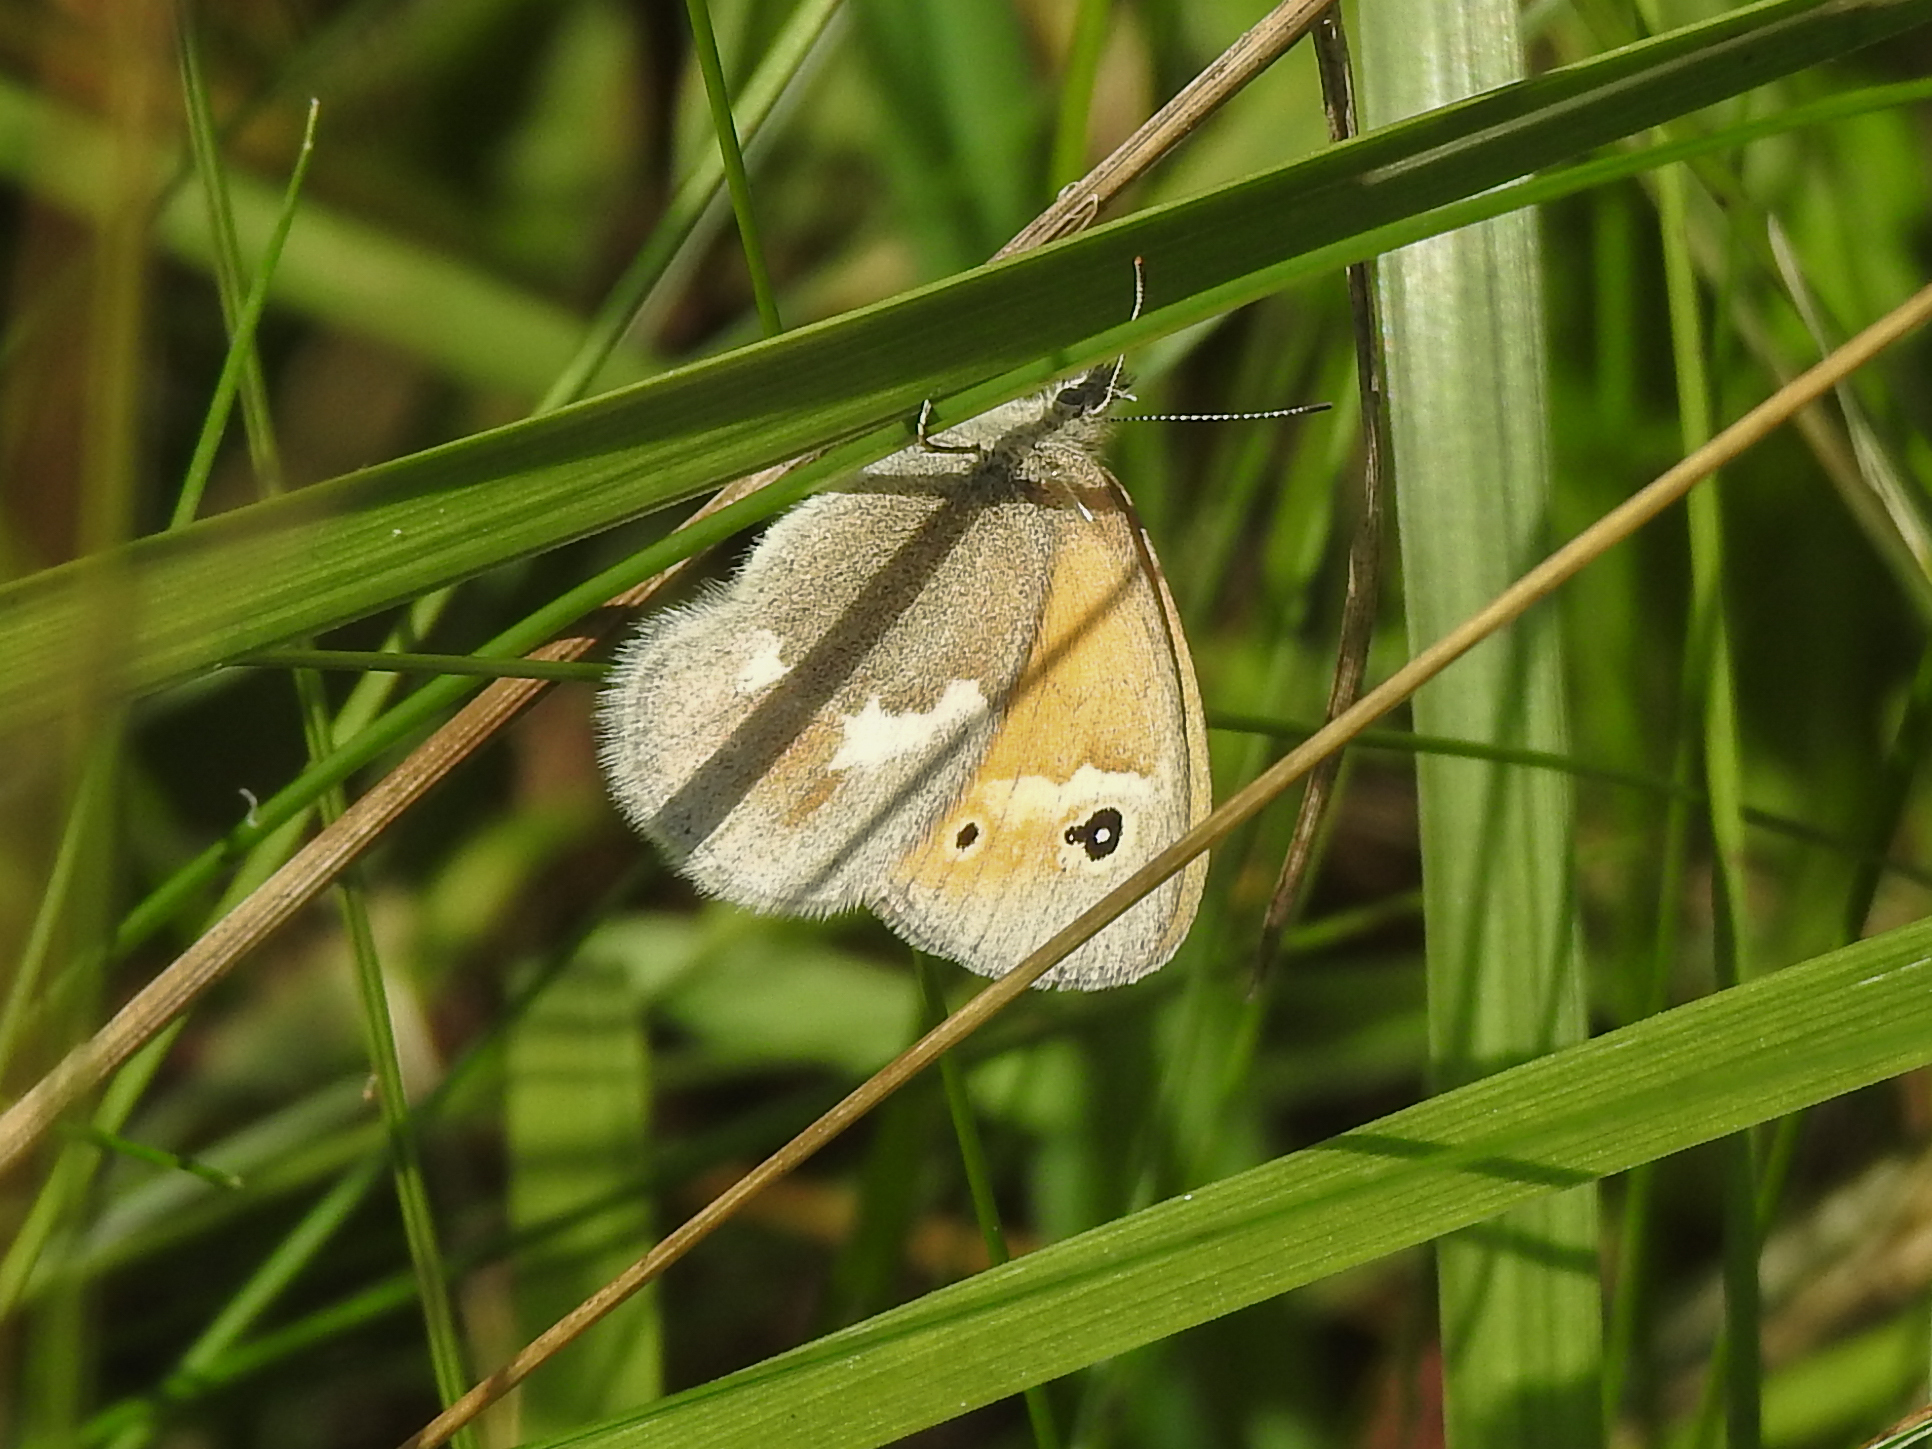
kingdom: Animalia
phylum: Arthropoda
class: Insecta
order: Lepidoptera
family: Nymphalidae
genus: Coenonympha
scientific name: Coenonympha california
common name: Common ringlet
